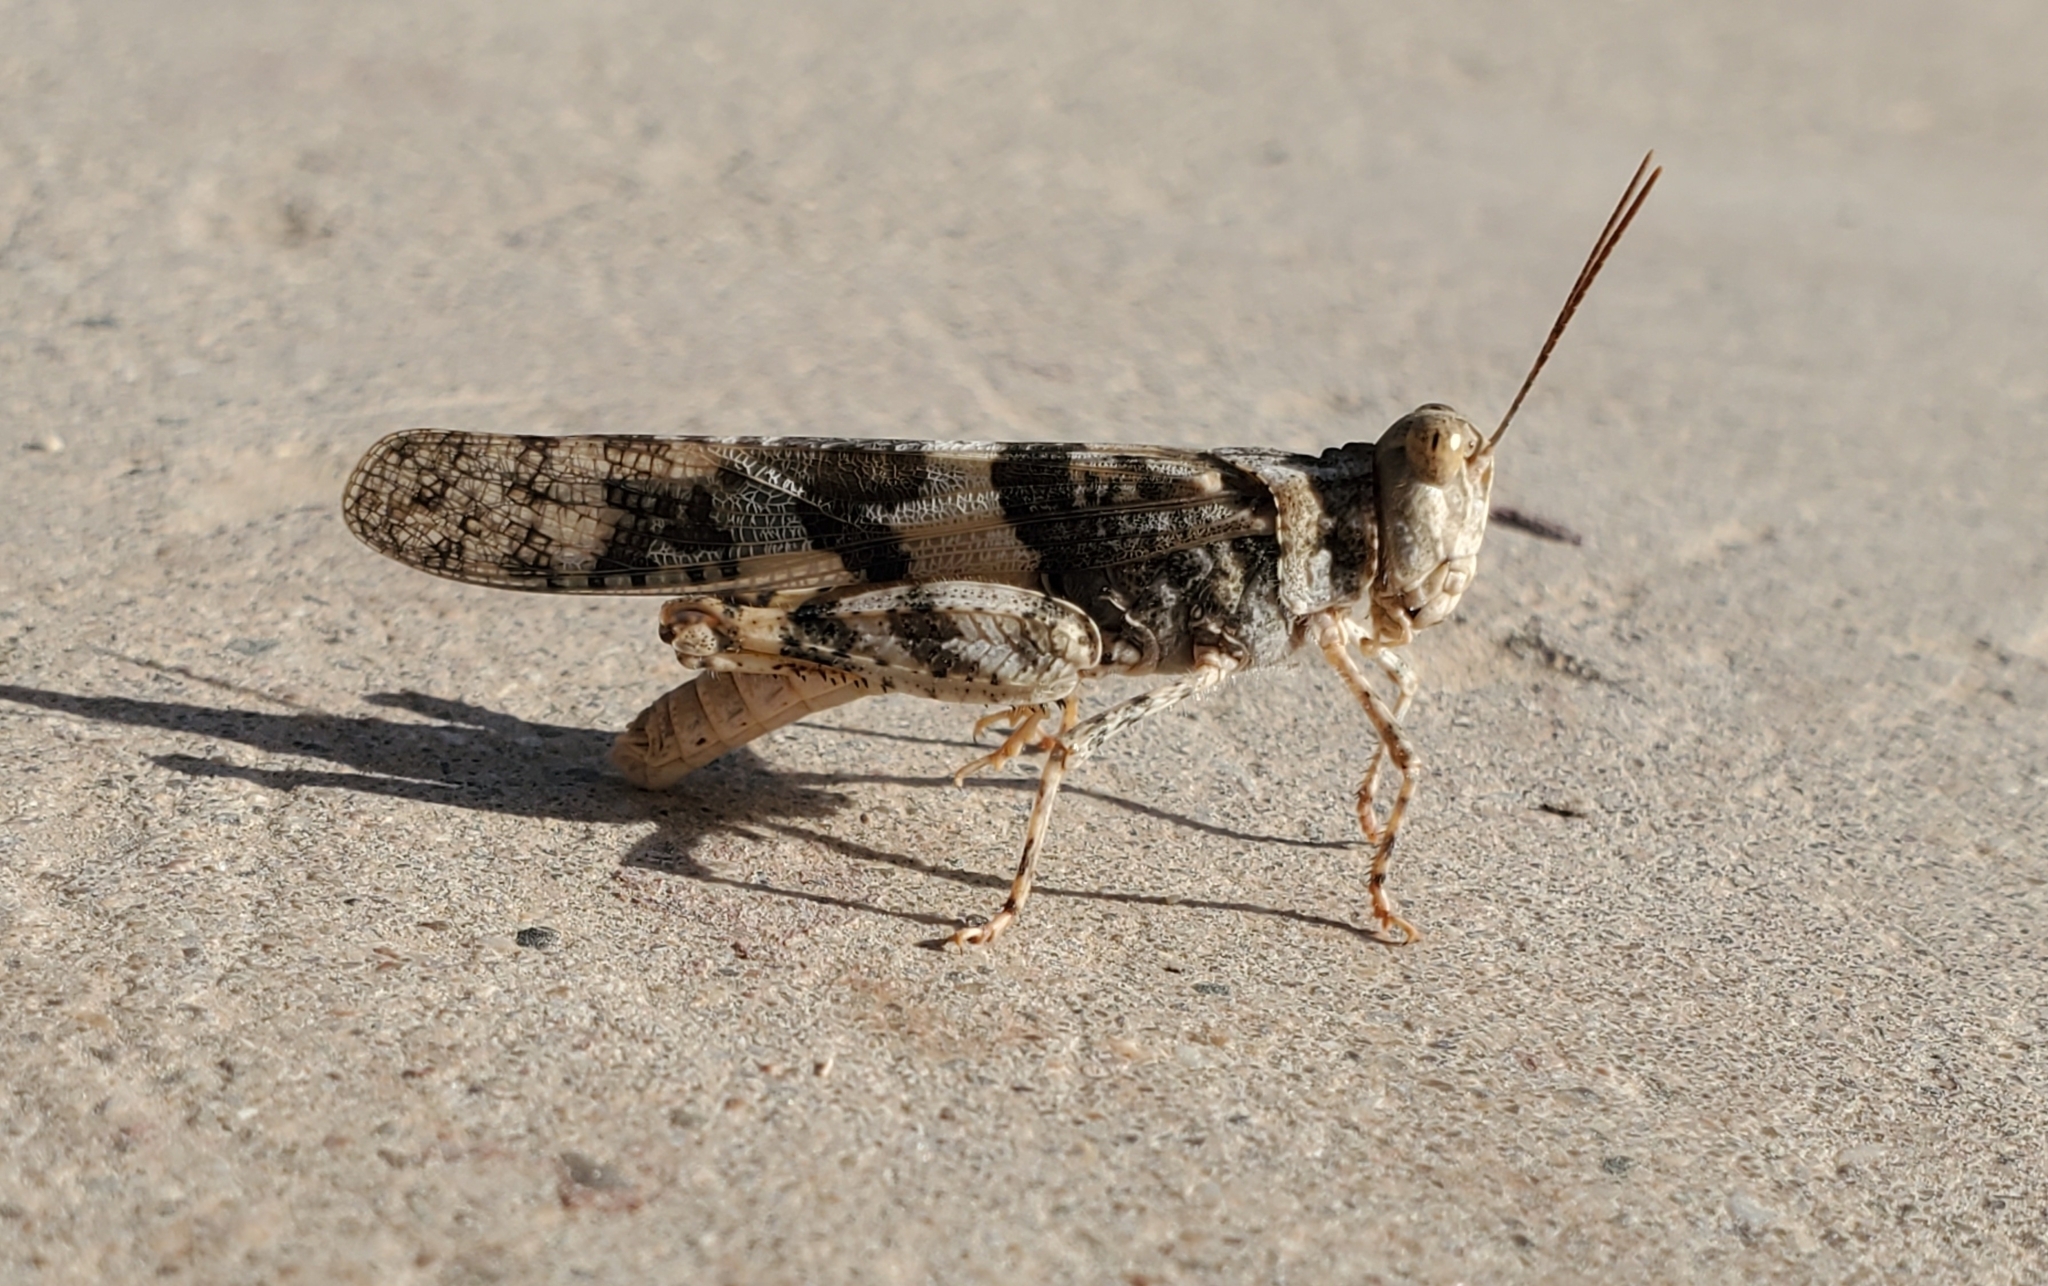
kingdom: Animalia
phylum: Arthropoda
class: Insecta
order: Orthoptera
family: Acrididae
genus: Trimerotropis
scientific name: Trimerotropis pallidipennis
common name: Pallid-winged grasshopper
